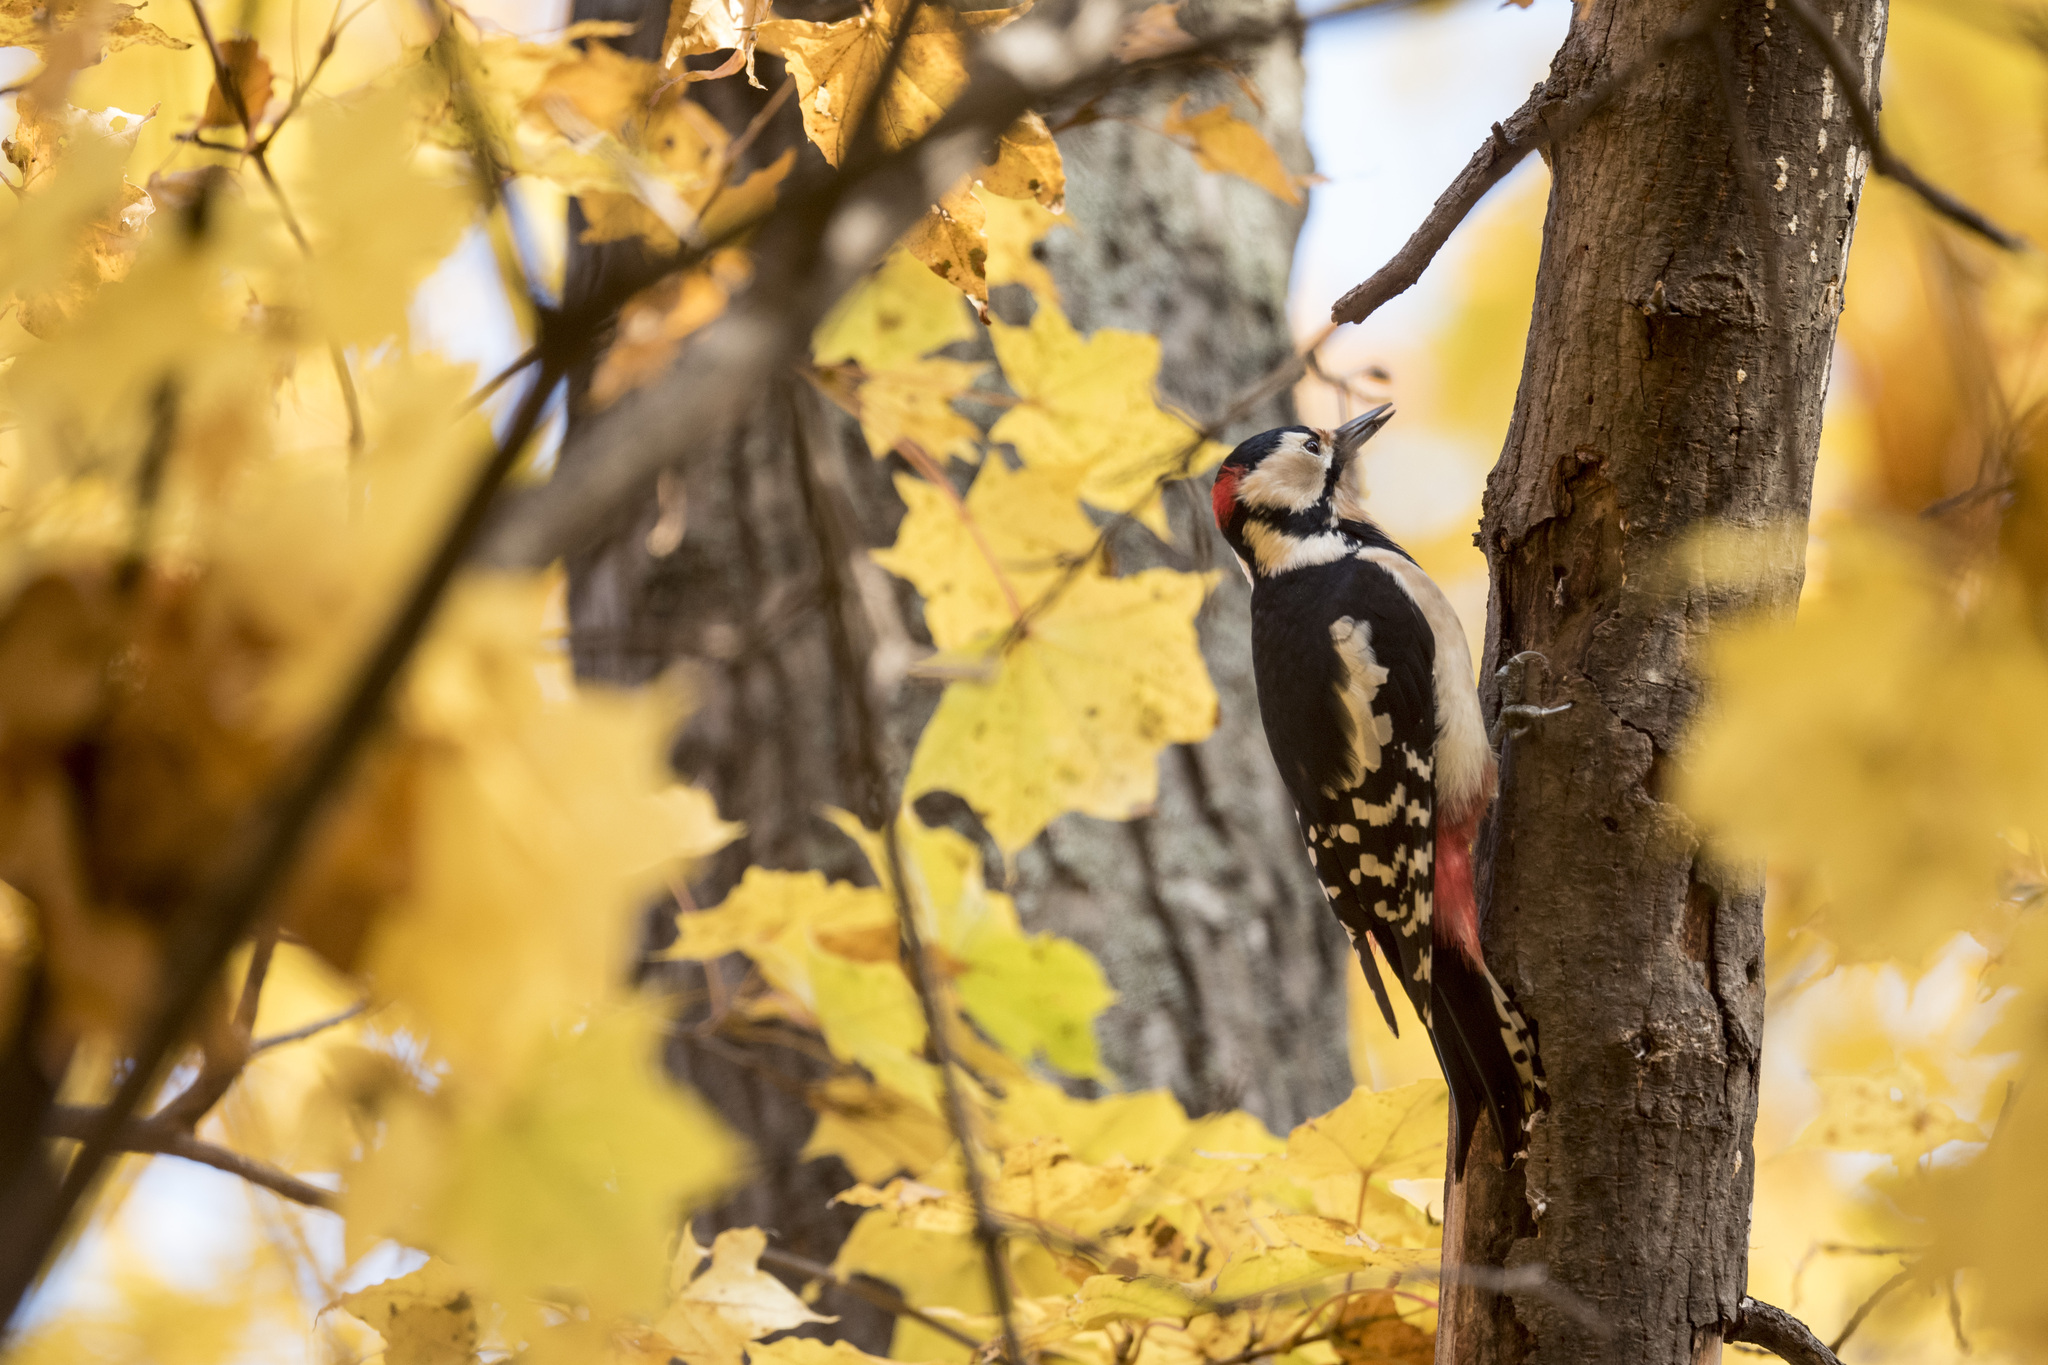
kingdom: Animalia
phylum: Chordata
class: Aves
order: Piciformes
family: Picidae
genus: Dendrocopos
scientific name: Dendrocopos major
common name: Great spotted woodpecker
